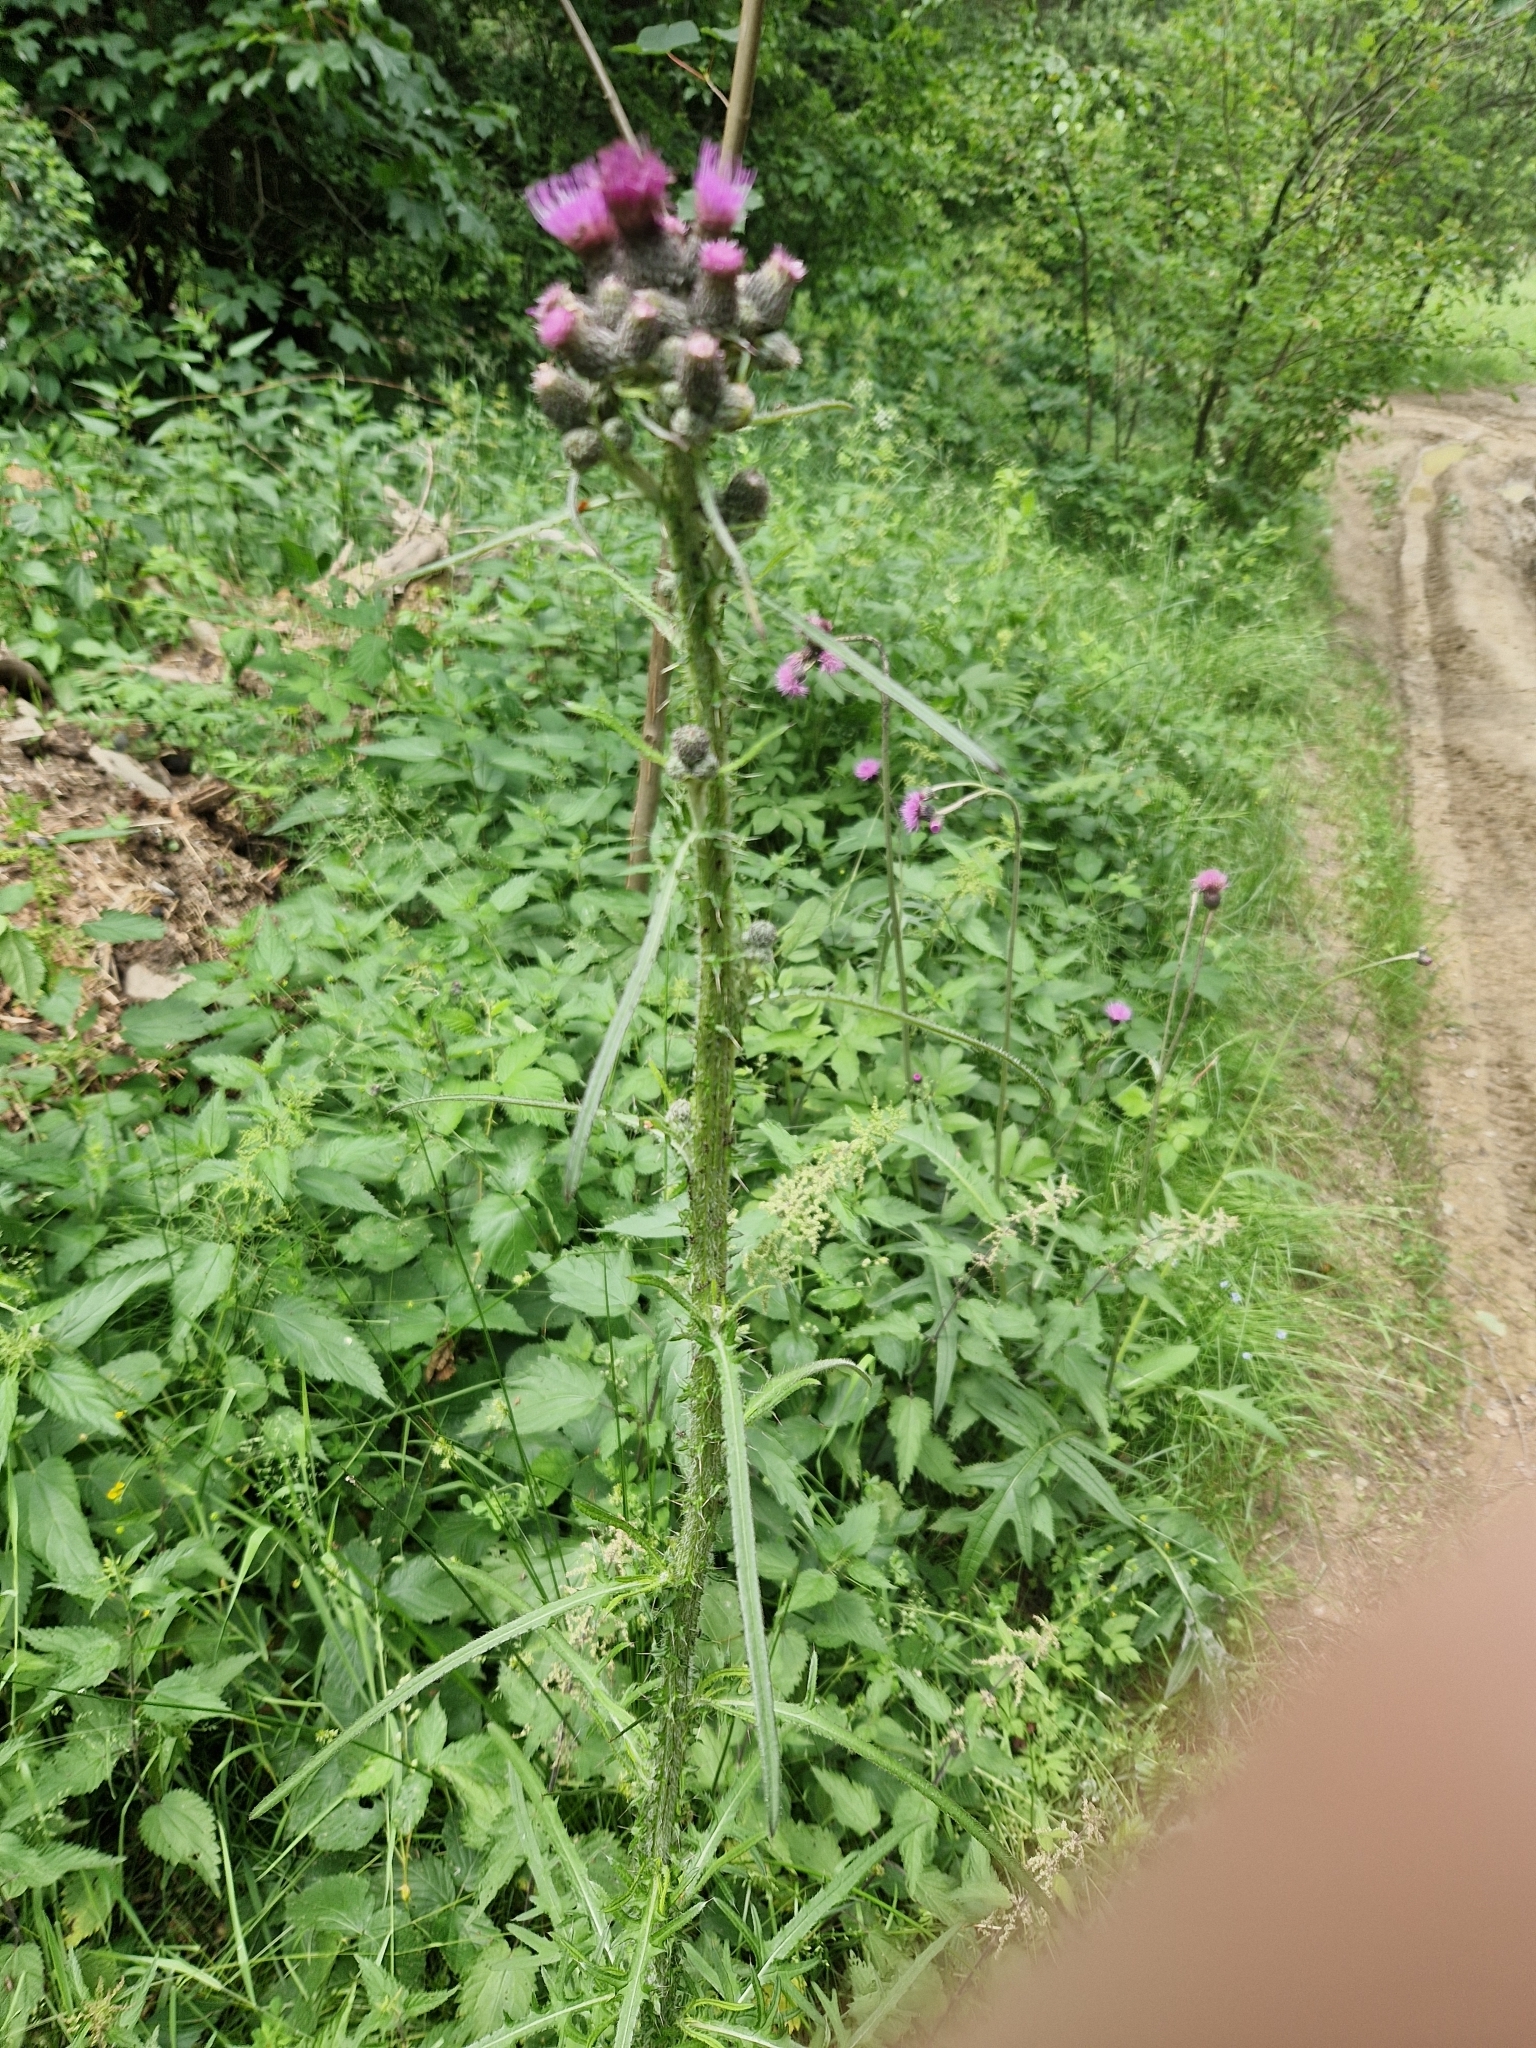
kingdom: Plantae
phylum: Tracheophyta
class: Magnoliopsida
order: Asterales
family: Asteraceae
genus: Cirsium
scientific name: Cirsium palustre
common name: Marsh thistle
